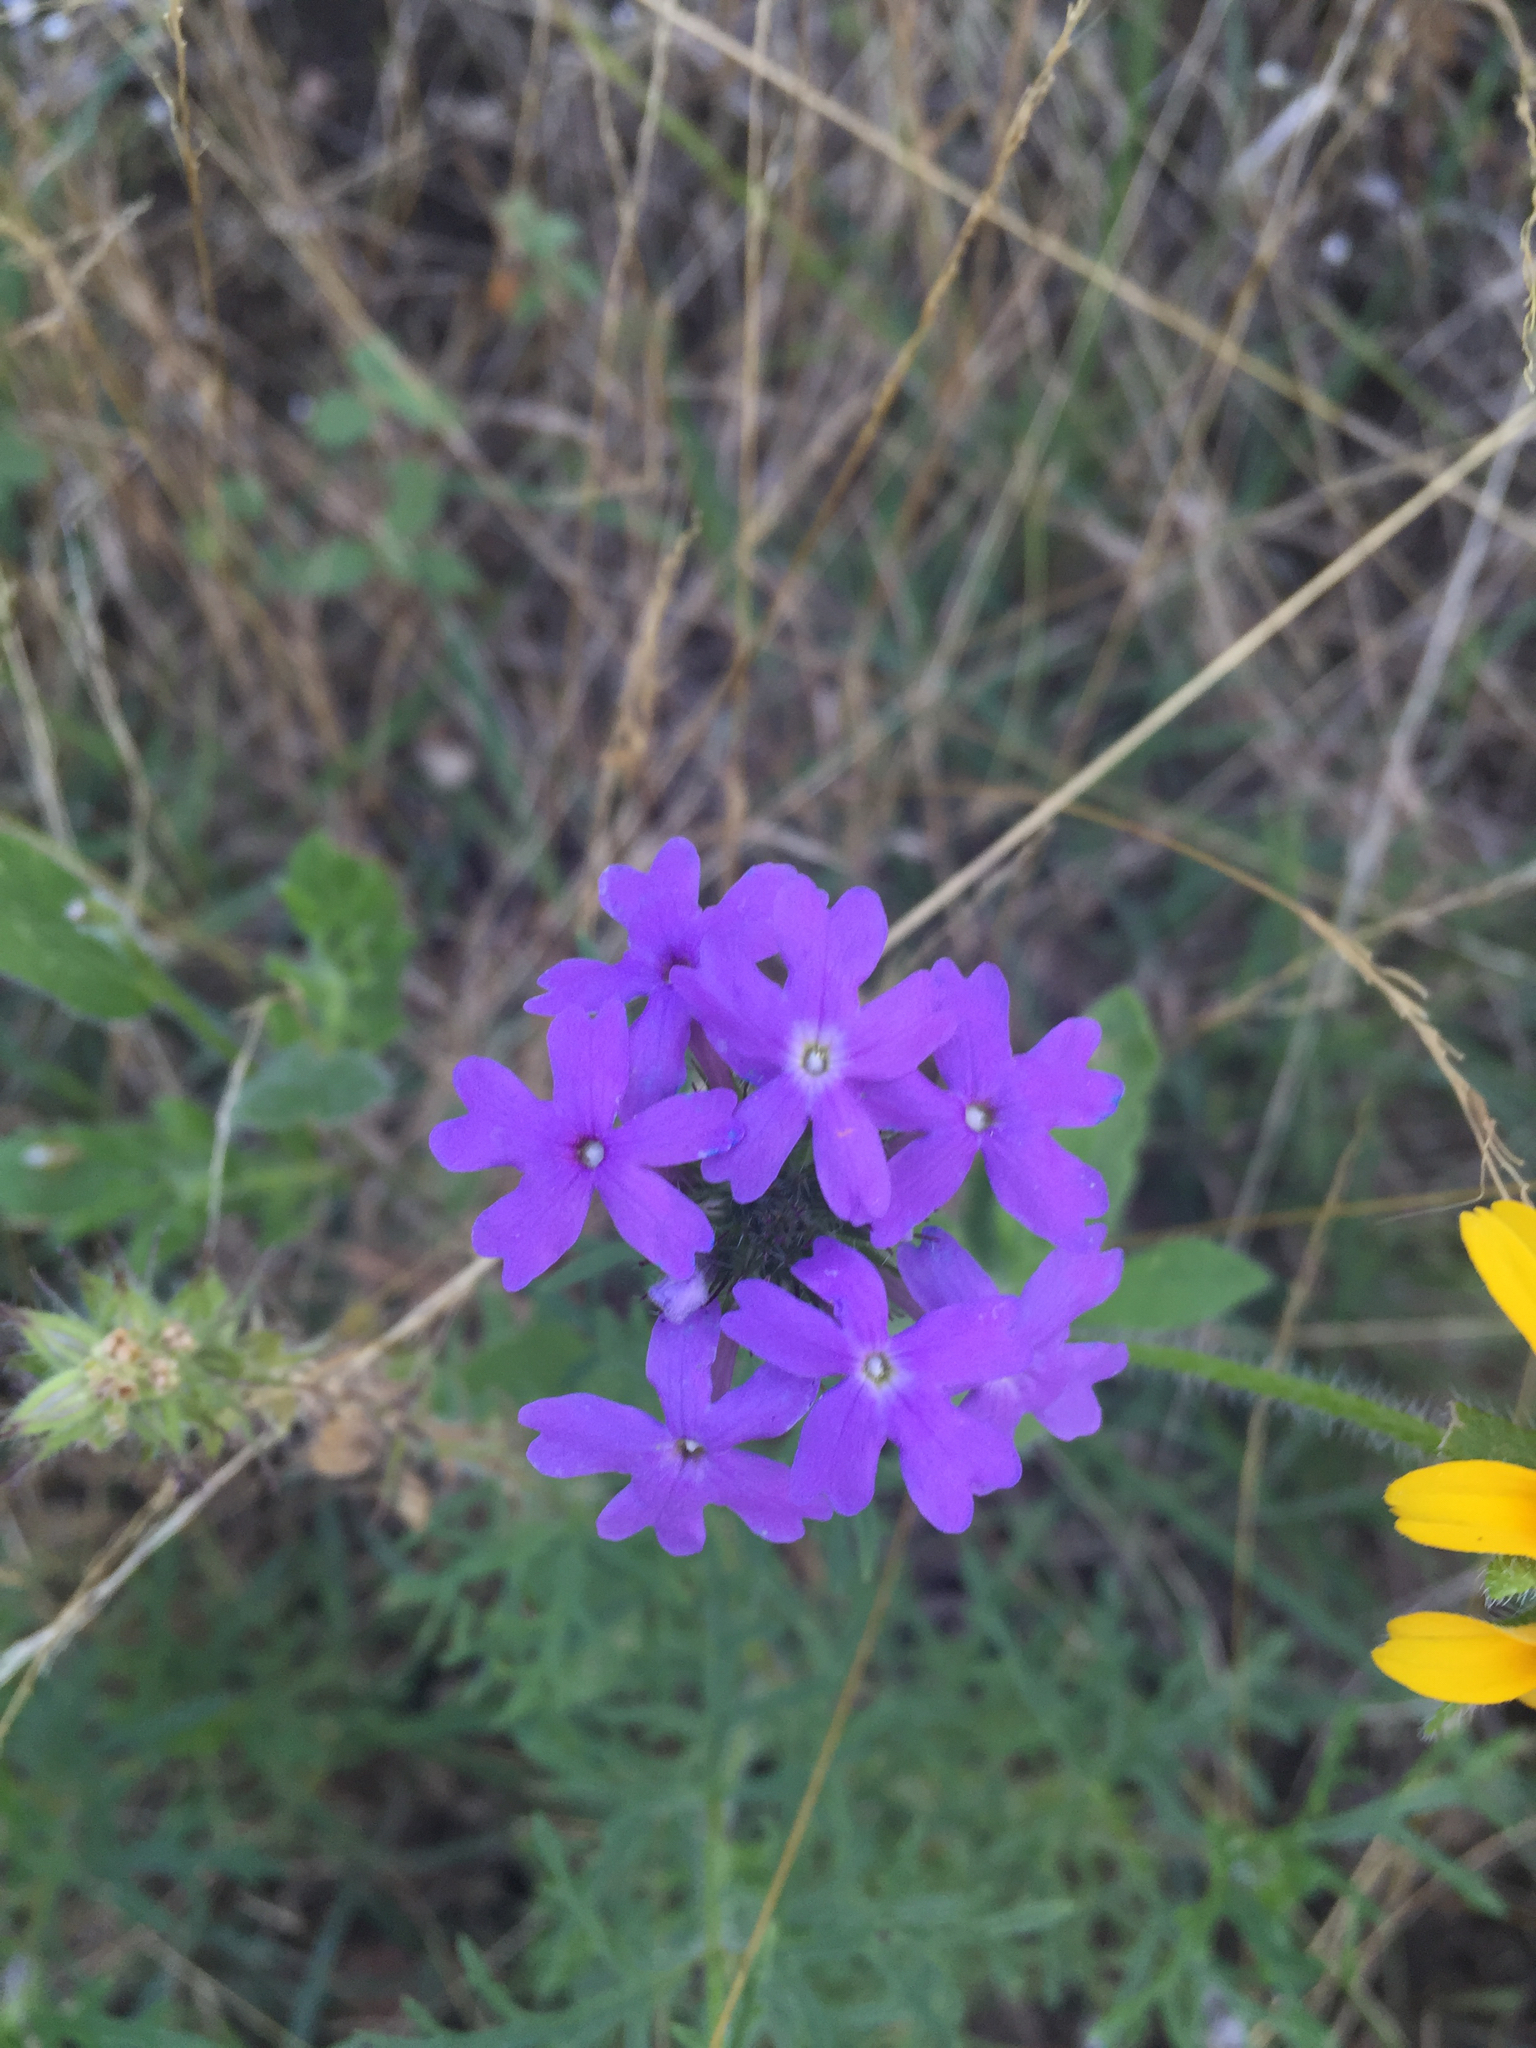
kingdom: Plantae
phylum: Tracheophyta
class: Magnoliopsida
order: Lamiales
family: Verbenaceae
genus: Verbena
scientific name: Verbena bipinnatifida
